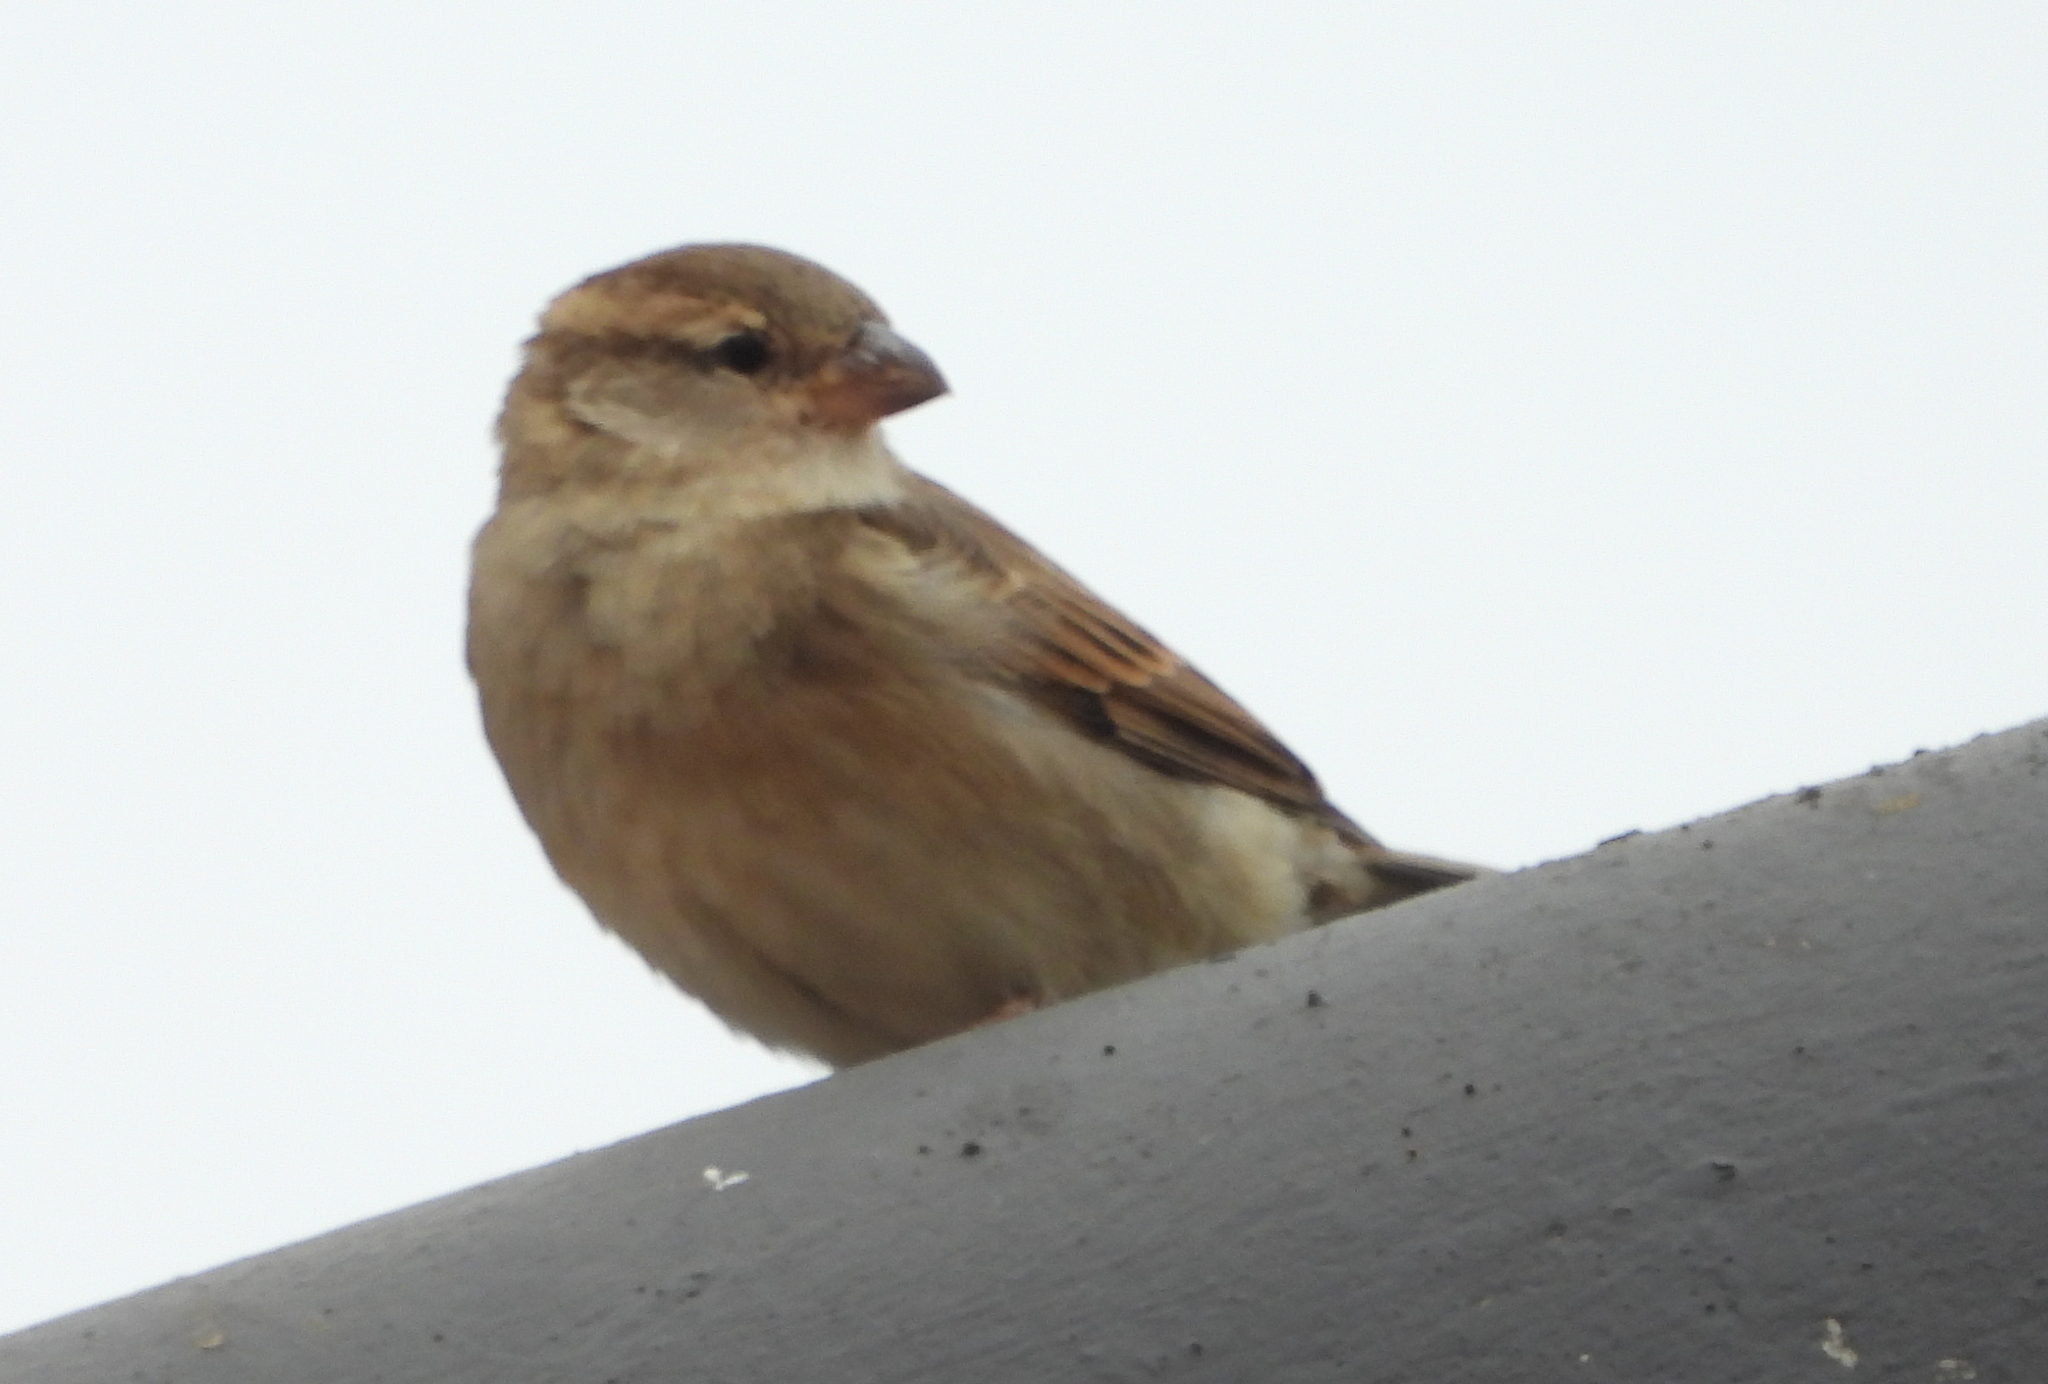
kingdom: Animalia
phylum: Chordata
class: Aves
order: Passeriformes
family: Passeridae
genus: Passer
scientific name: Passer domesticus
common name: House sparrow
